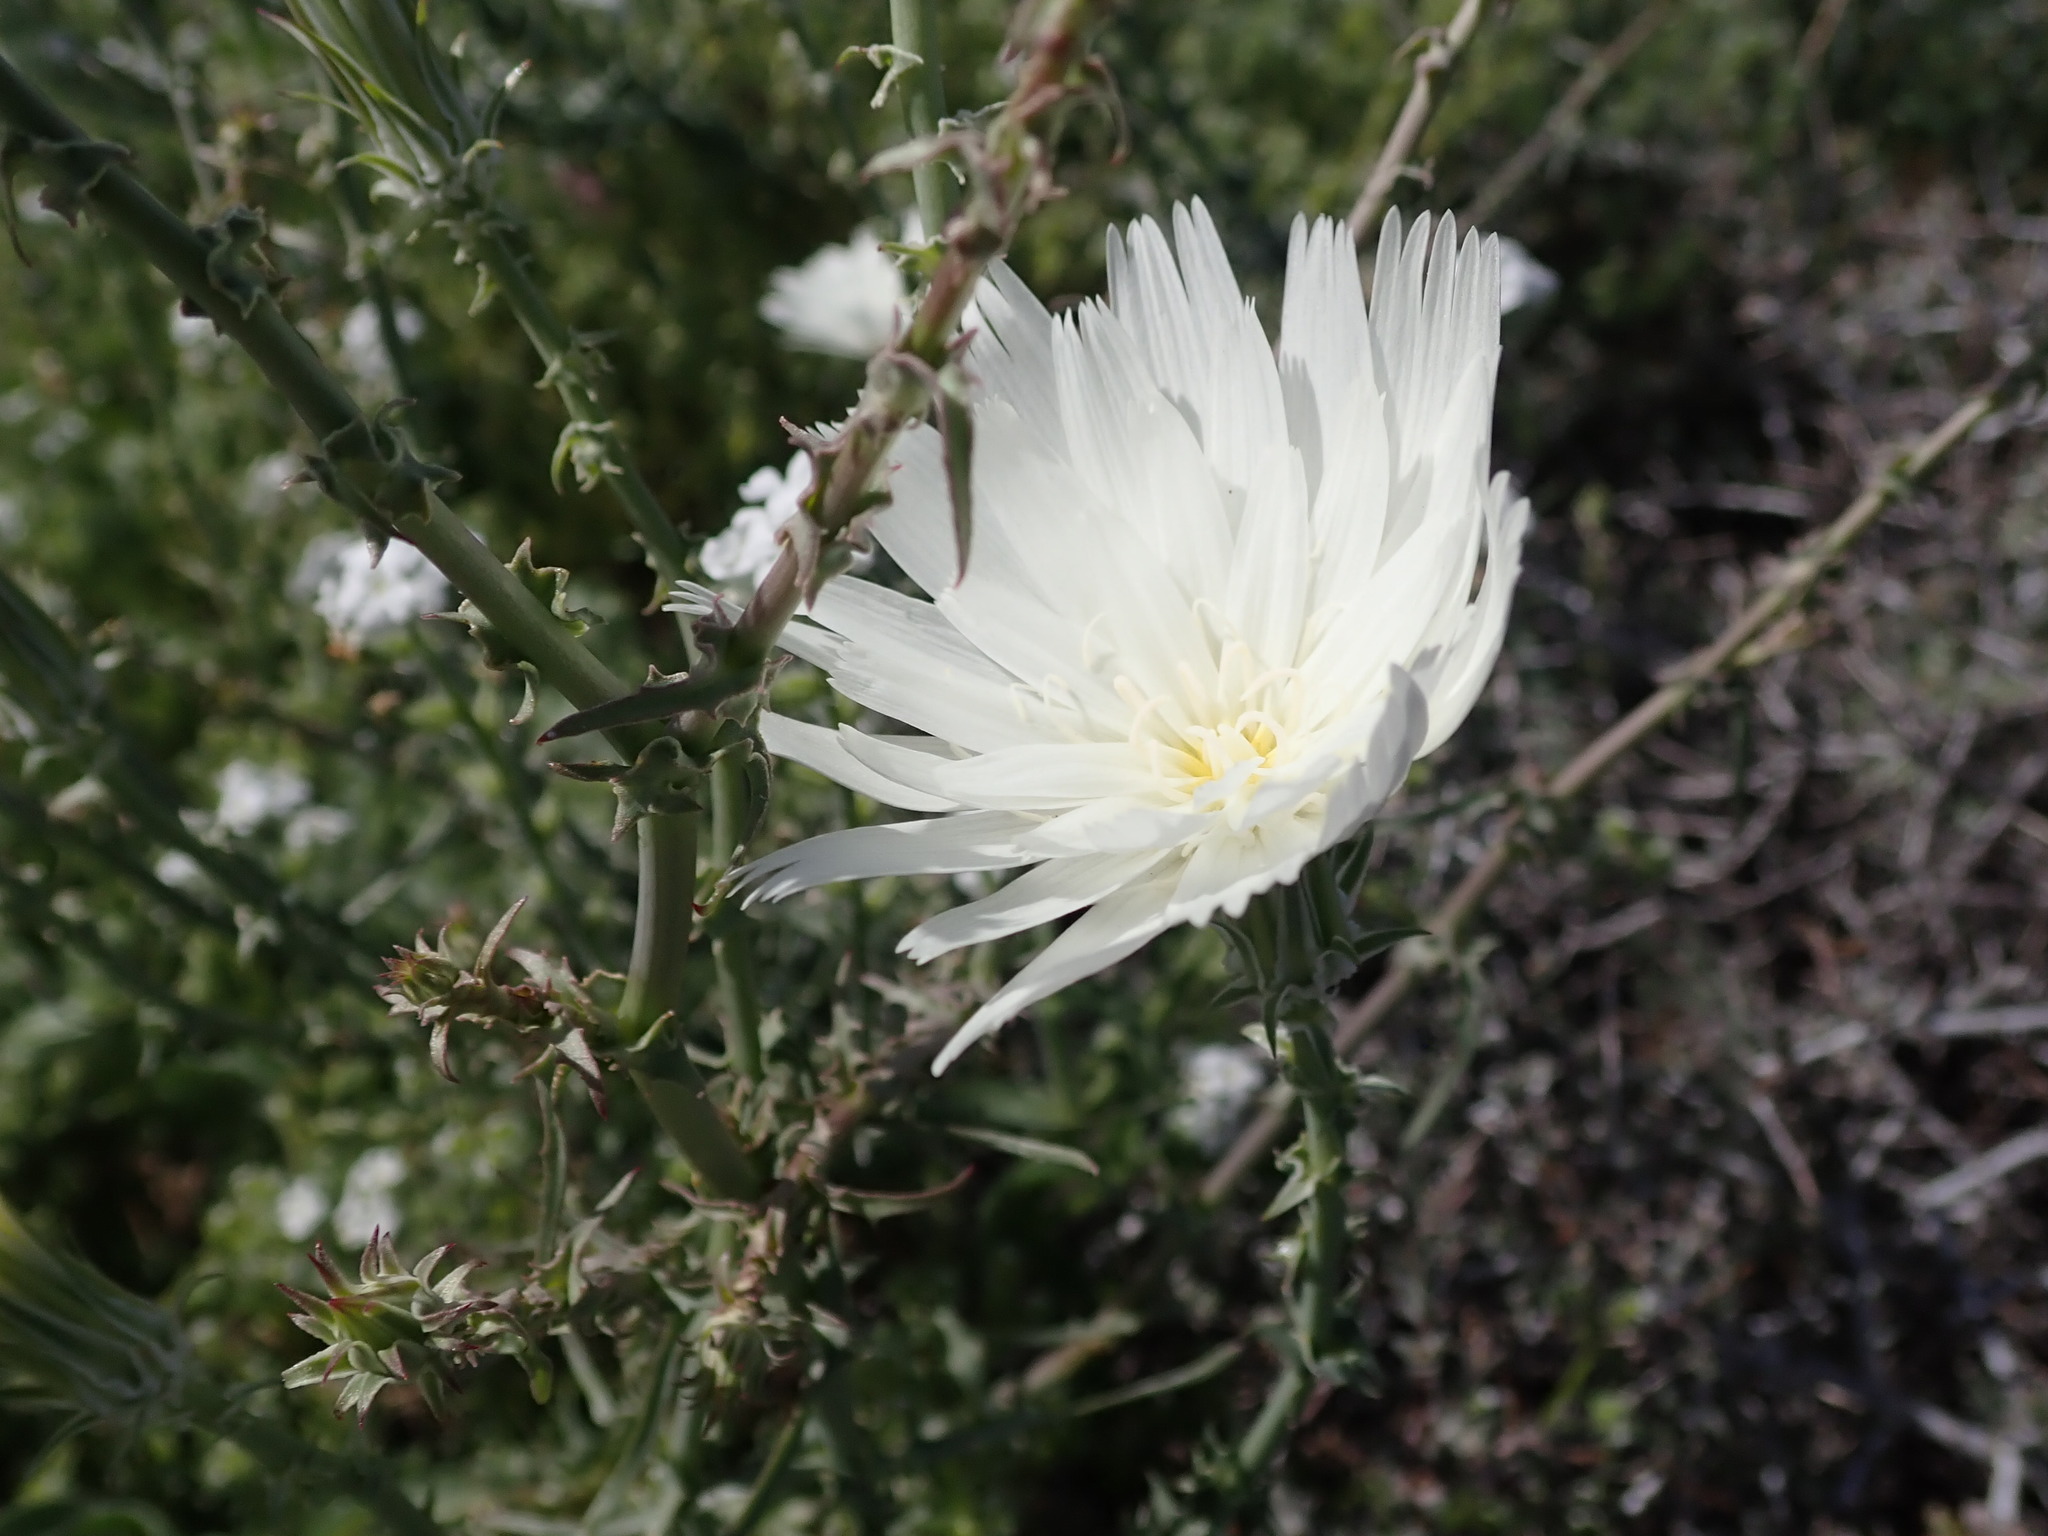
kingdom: Plantae
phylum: Tracheophyta
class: Magnoliopsida
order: Asterales
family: Asteraceae
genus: Rafinesquia
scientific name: Rafinesquia neomexicana
